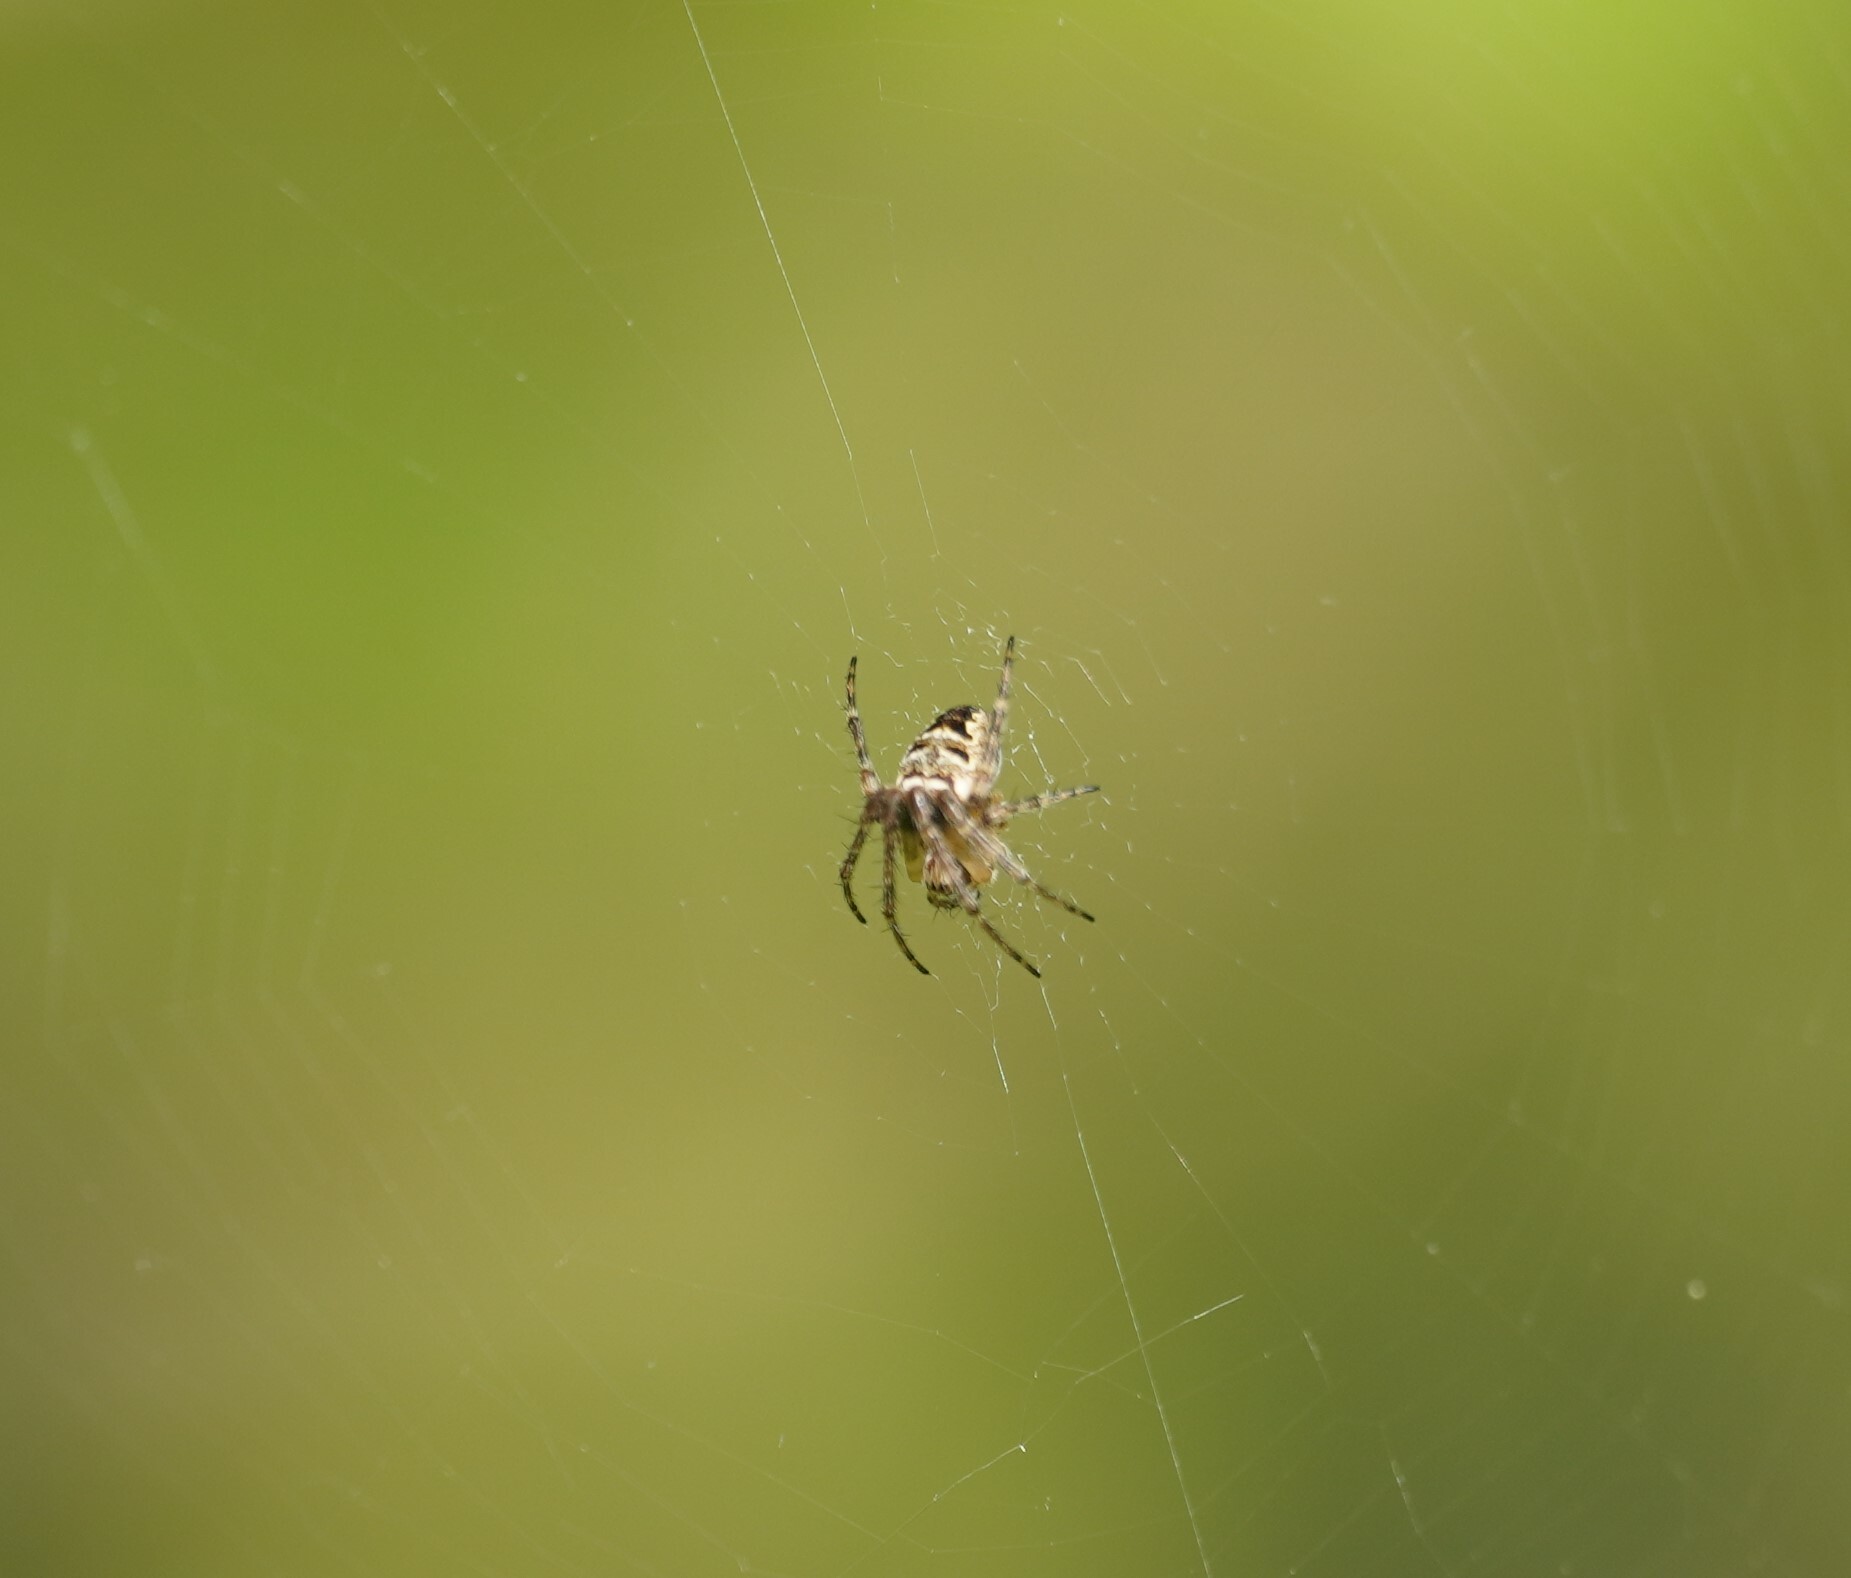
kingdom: Animalia
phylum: Arthropoda
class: Arachnida
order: Araneae
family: Araneidae
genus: Zilla
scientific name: Zilla diodia
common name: Zilla diodia
